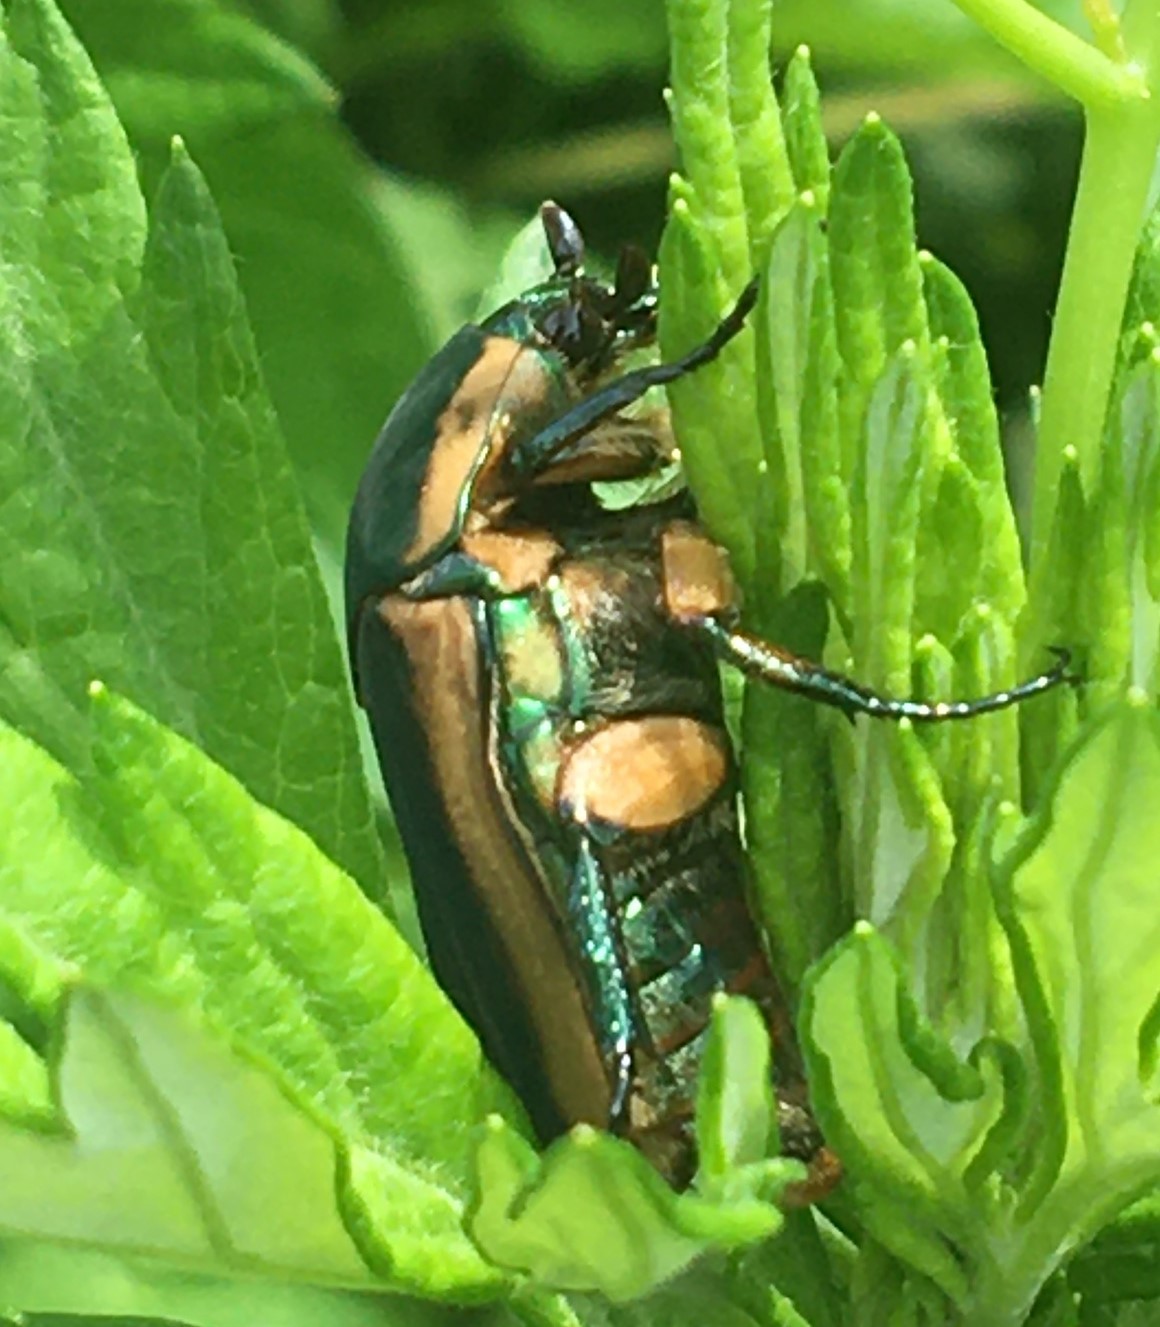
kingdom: Animalia
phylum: Arthropoda
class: Insecta
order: Coleoptera
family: Scarabaeidae
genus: Cotinis
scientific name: Cotinis nitida
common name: Common green june beetle
